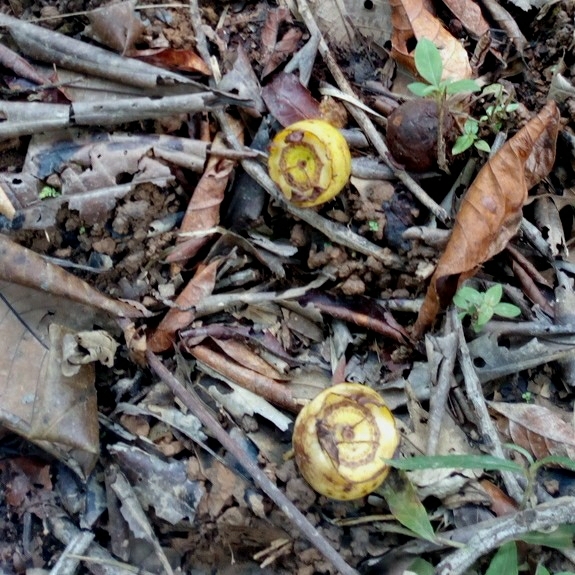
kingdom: Plantae
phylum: Tracheophyta
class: Magnoliopsida
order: Myrtales
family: Melastomataceae
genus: Bellucia
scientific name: Bellucia grossularioides
